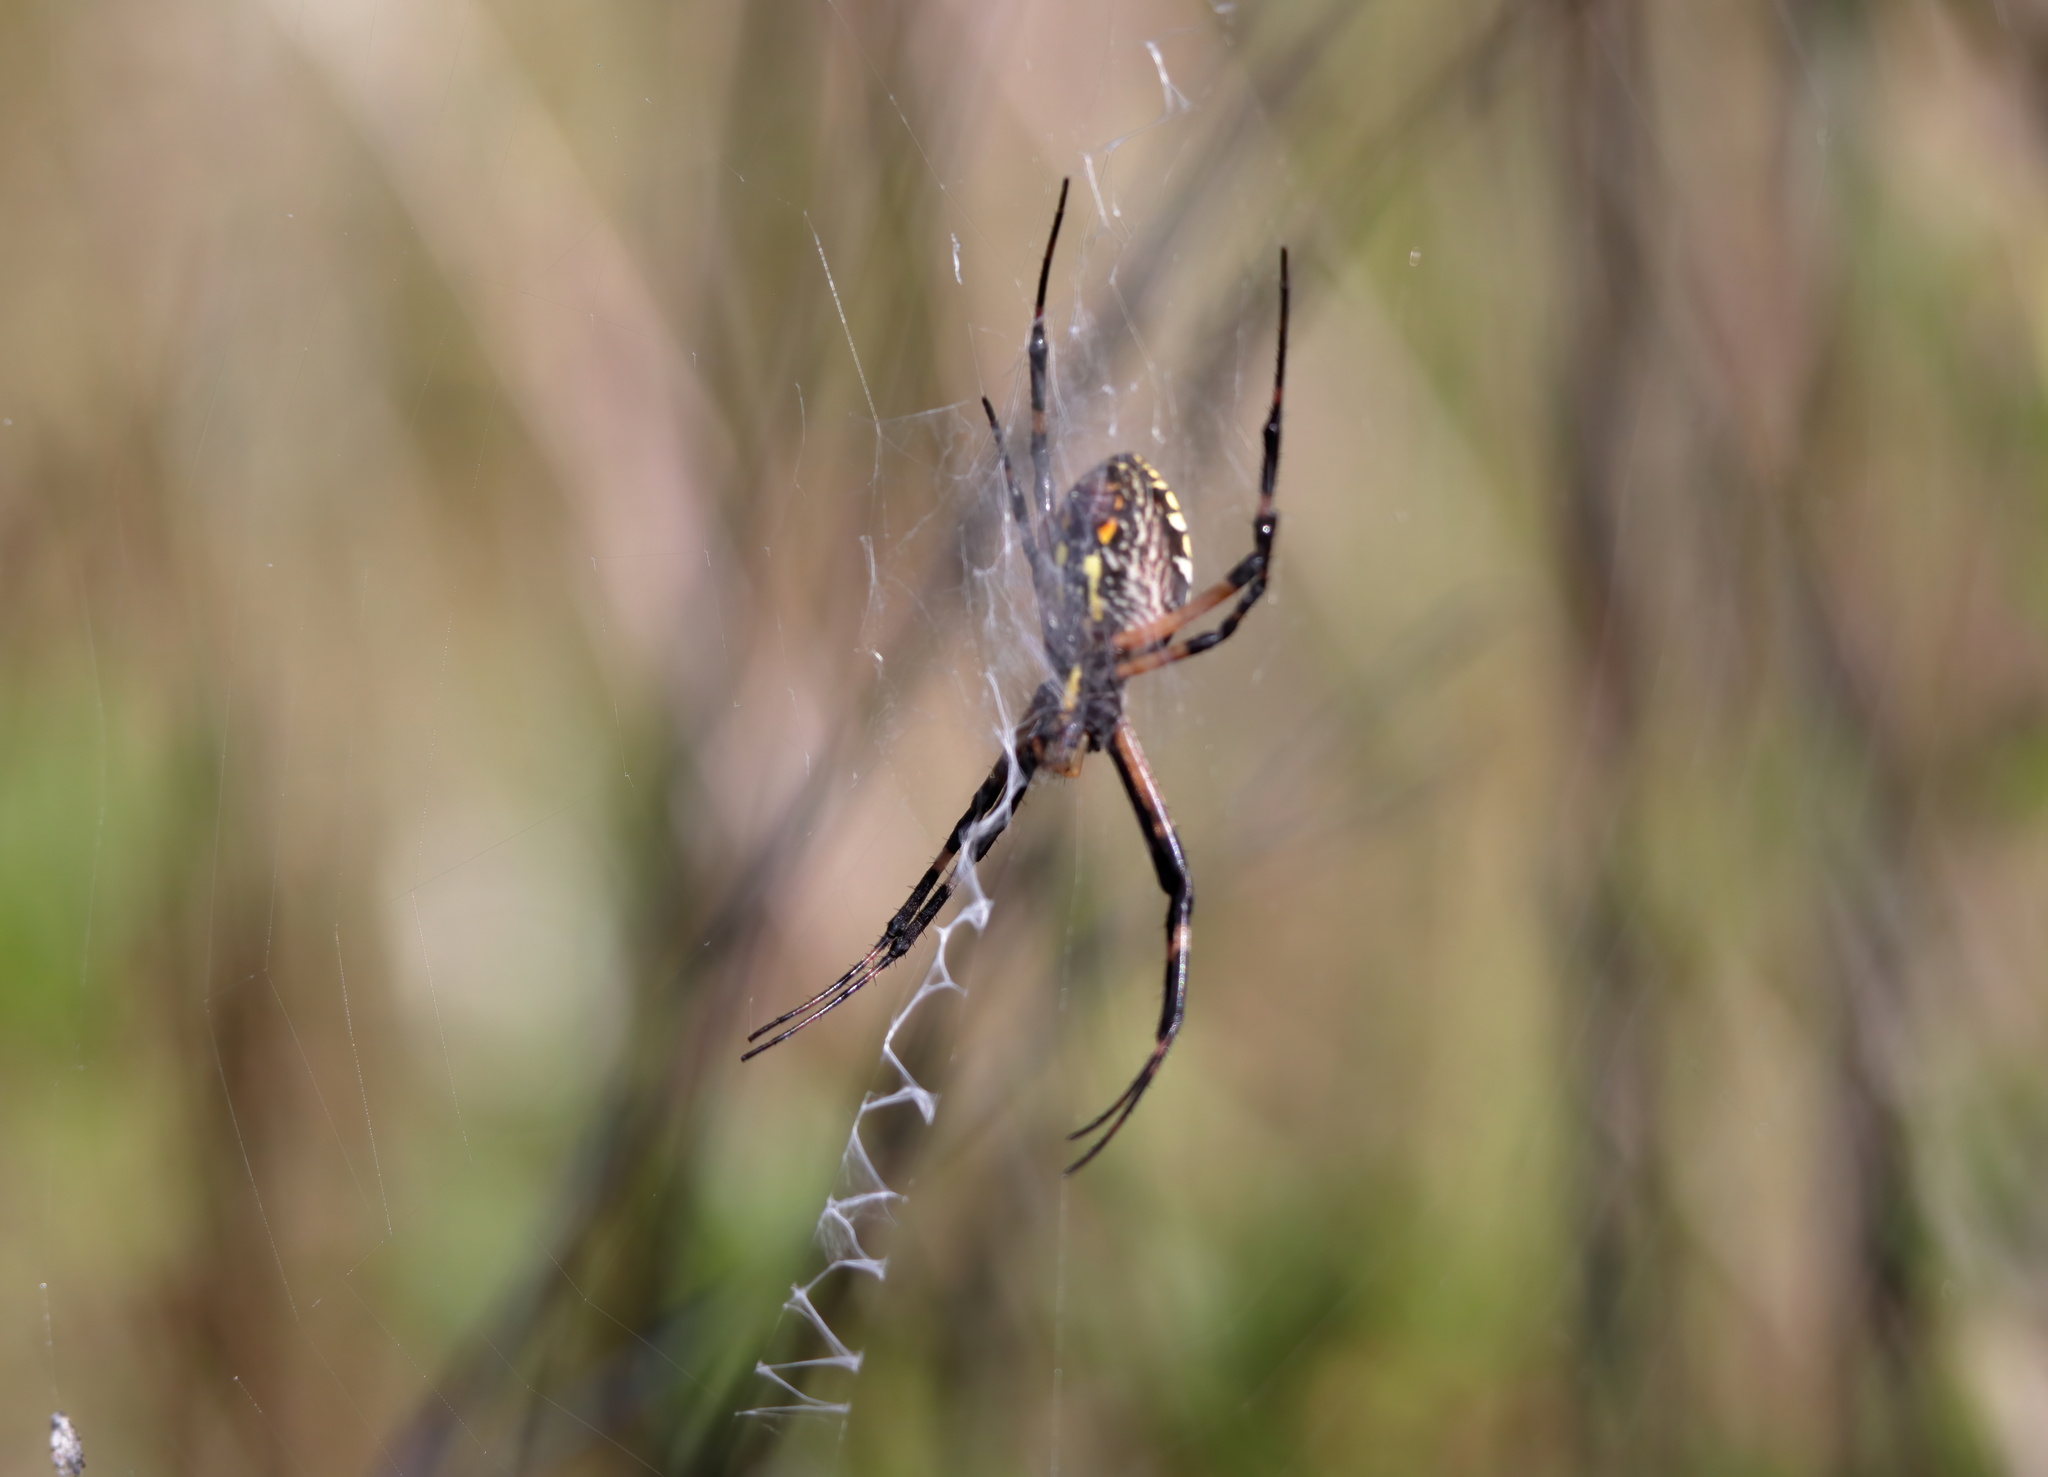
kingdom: Animalia
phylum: Arthropoda
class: Arachnida
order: Araneae
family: Araneidae
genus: Argiope
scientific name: Argiope aurantia
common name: Orb weavers
